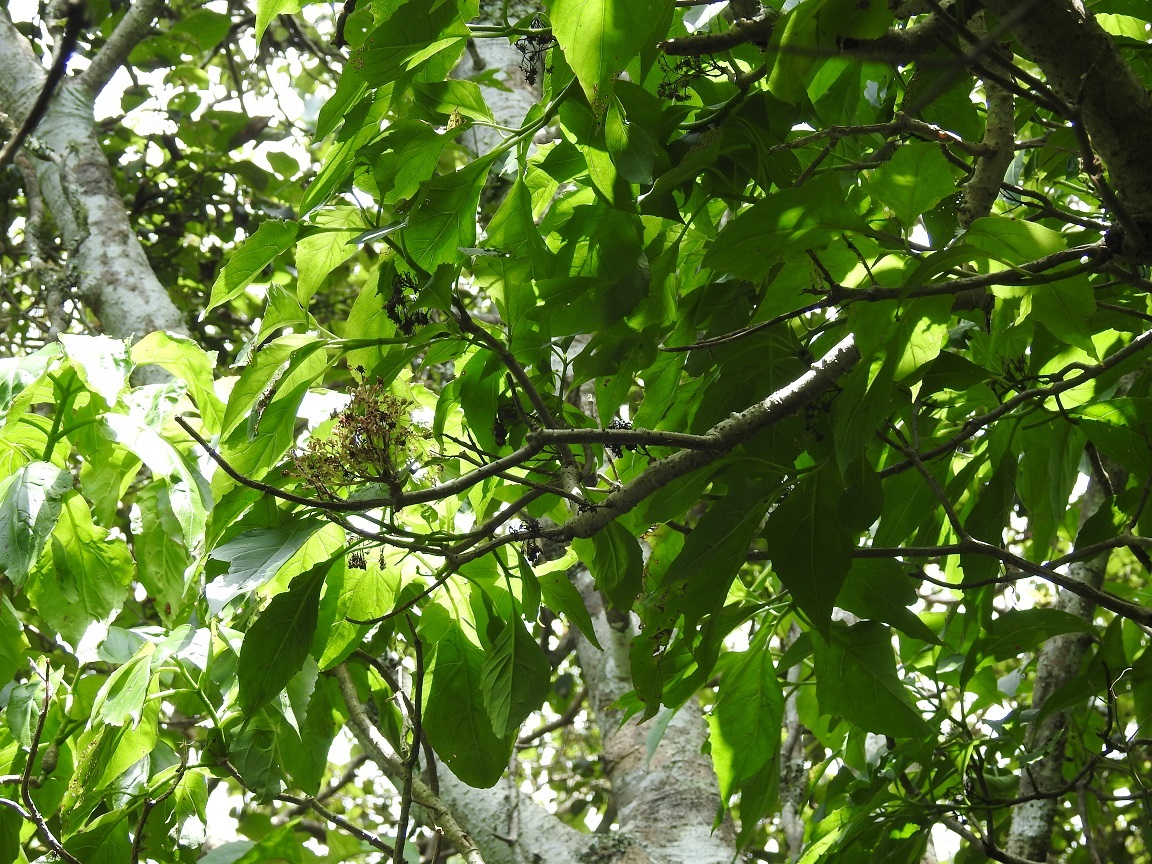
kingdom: Plantae
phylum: Tracheophyta
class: Magnoliopsida
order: Asterales
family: Asteraceae
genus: Pittocaulon
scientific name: Pittocaulon velatum
